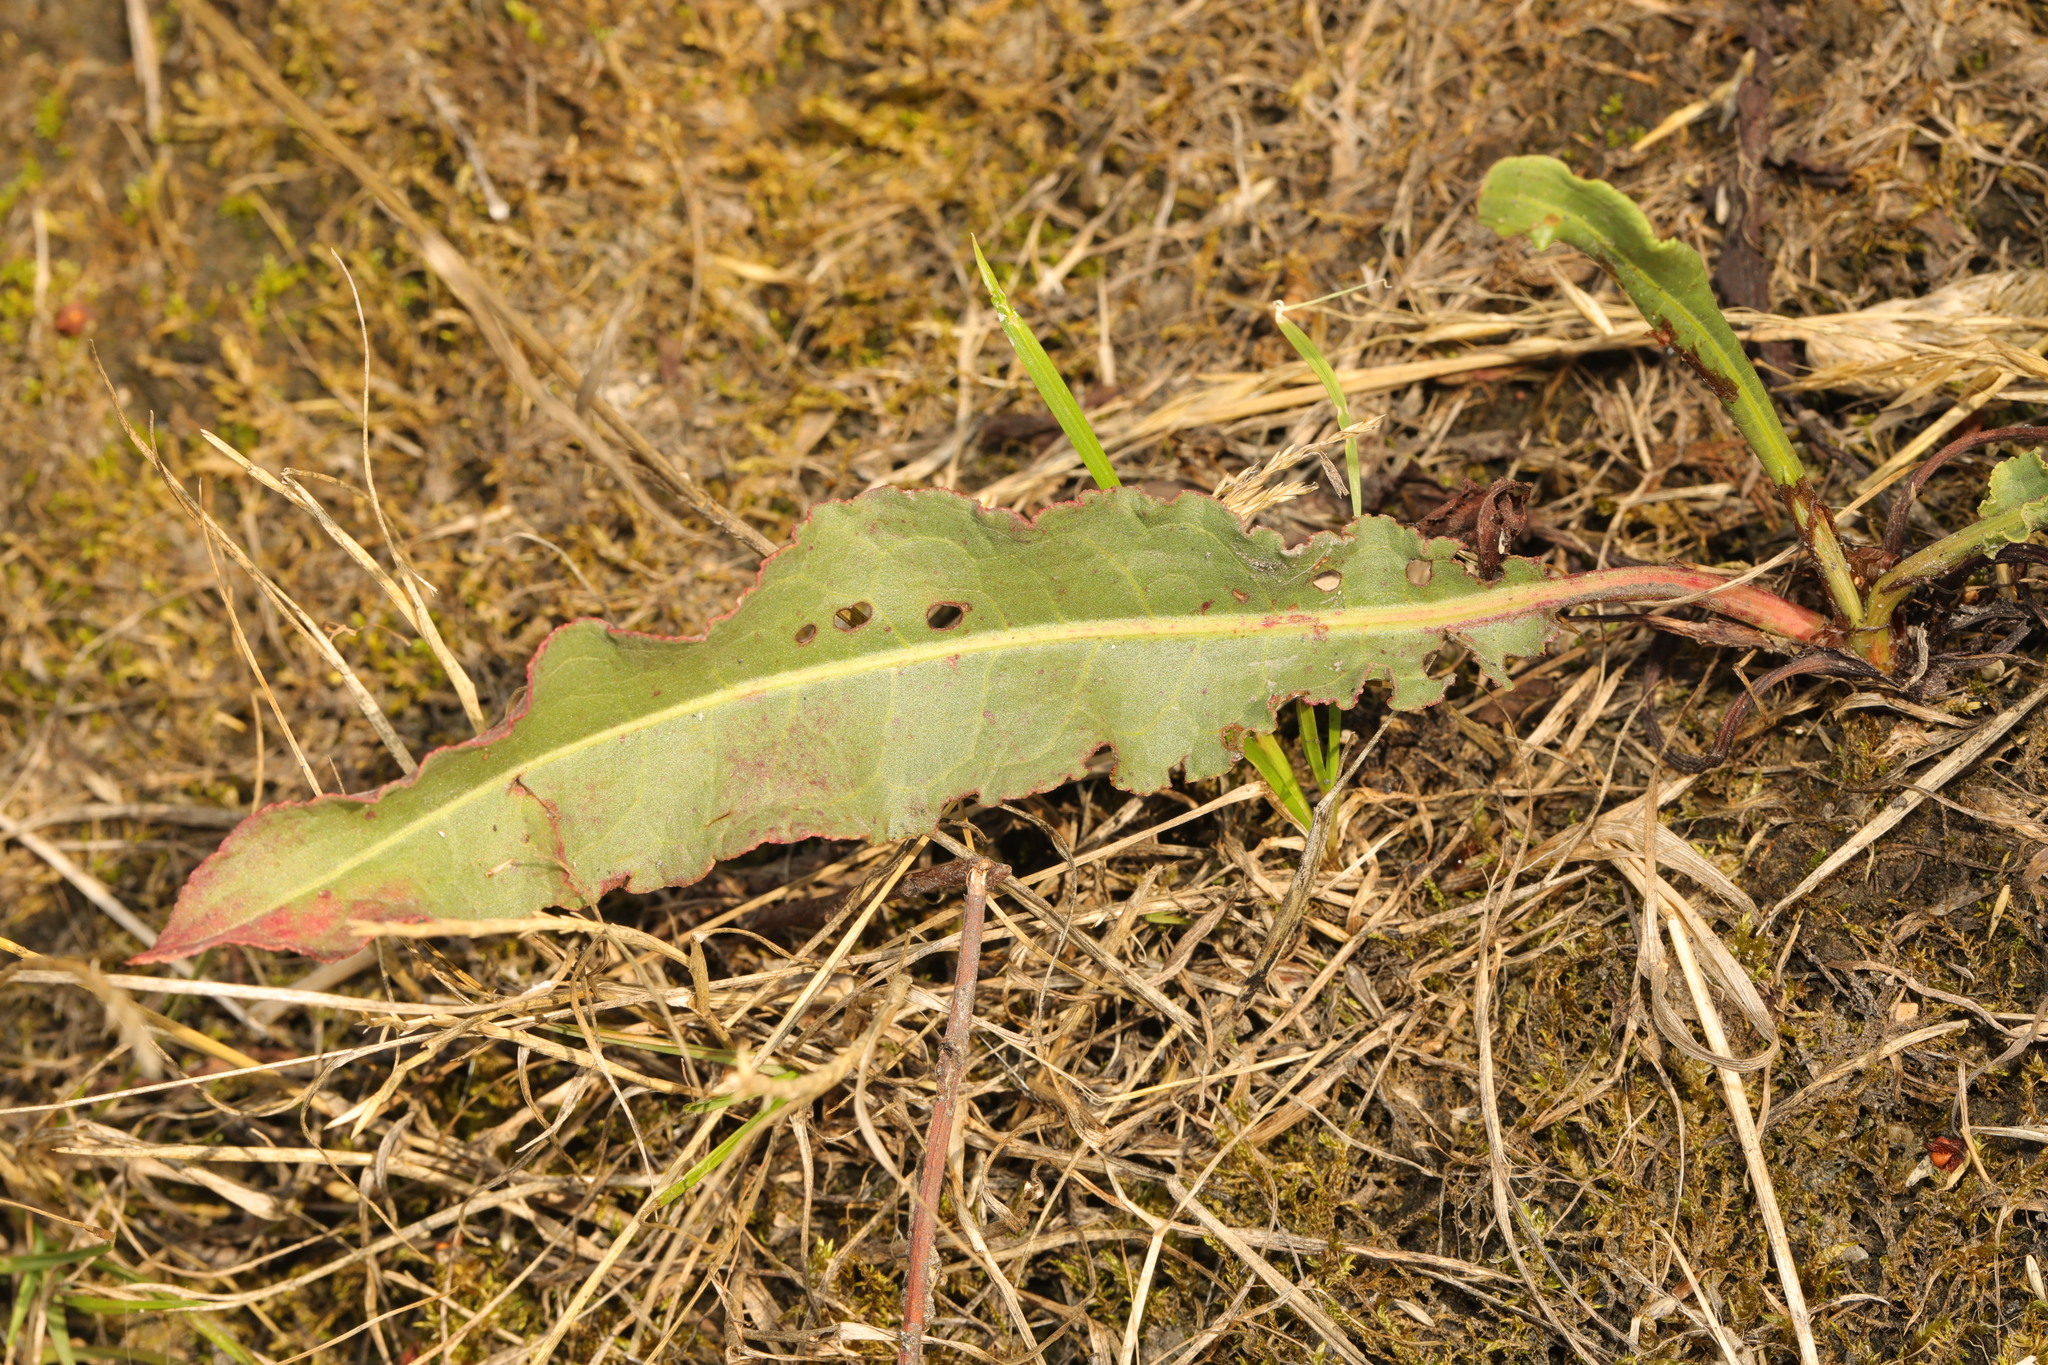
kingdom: Plantae
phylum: Tracheophyta
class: Magnoliopsida
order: Caryophyllales
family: Polygonaceae
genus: Rumex
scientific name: Rumex crispus
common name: Curled dock
